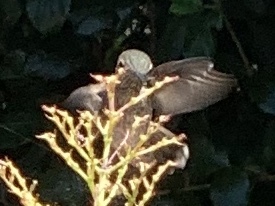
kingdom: Animalia
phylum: Chordata
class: Aves
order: Apodiformes
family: Trochilidae
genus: Calypte
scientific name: Calypte anna
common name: Anna's hummingbird
